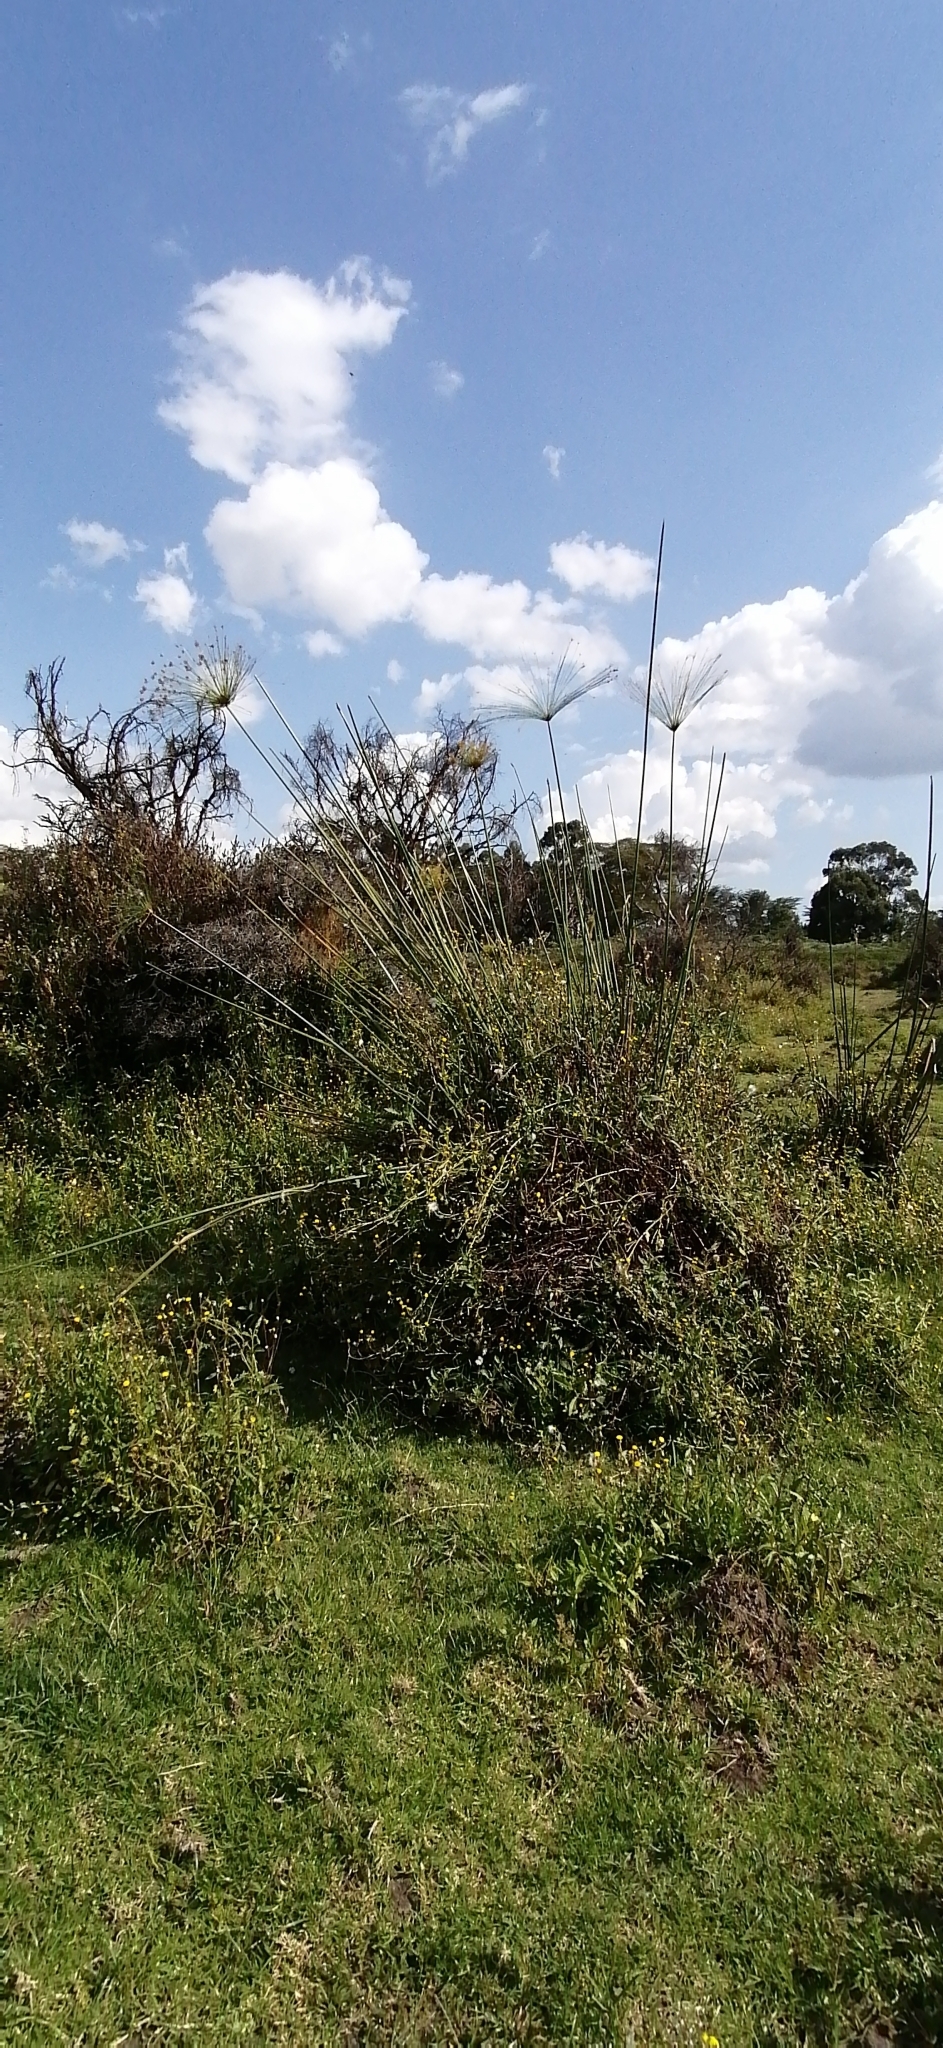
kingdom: Plantae
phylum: Tracheophyta
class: Liliopsida
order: Poales
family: Cyperaceae
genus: Cyperus
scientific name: Cyperus papyrus
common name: Papyrus
